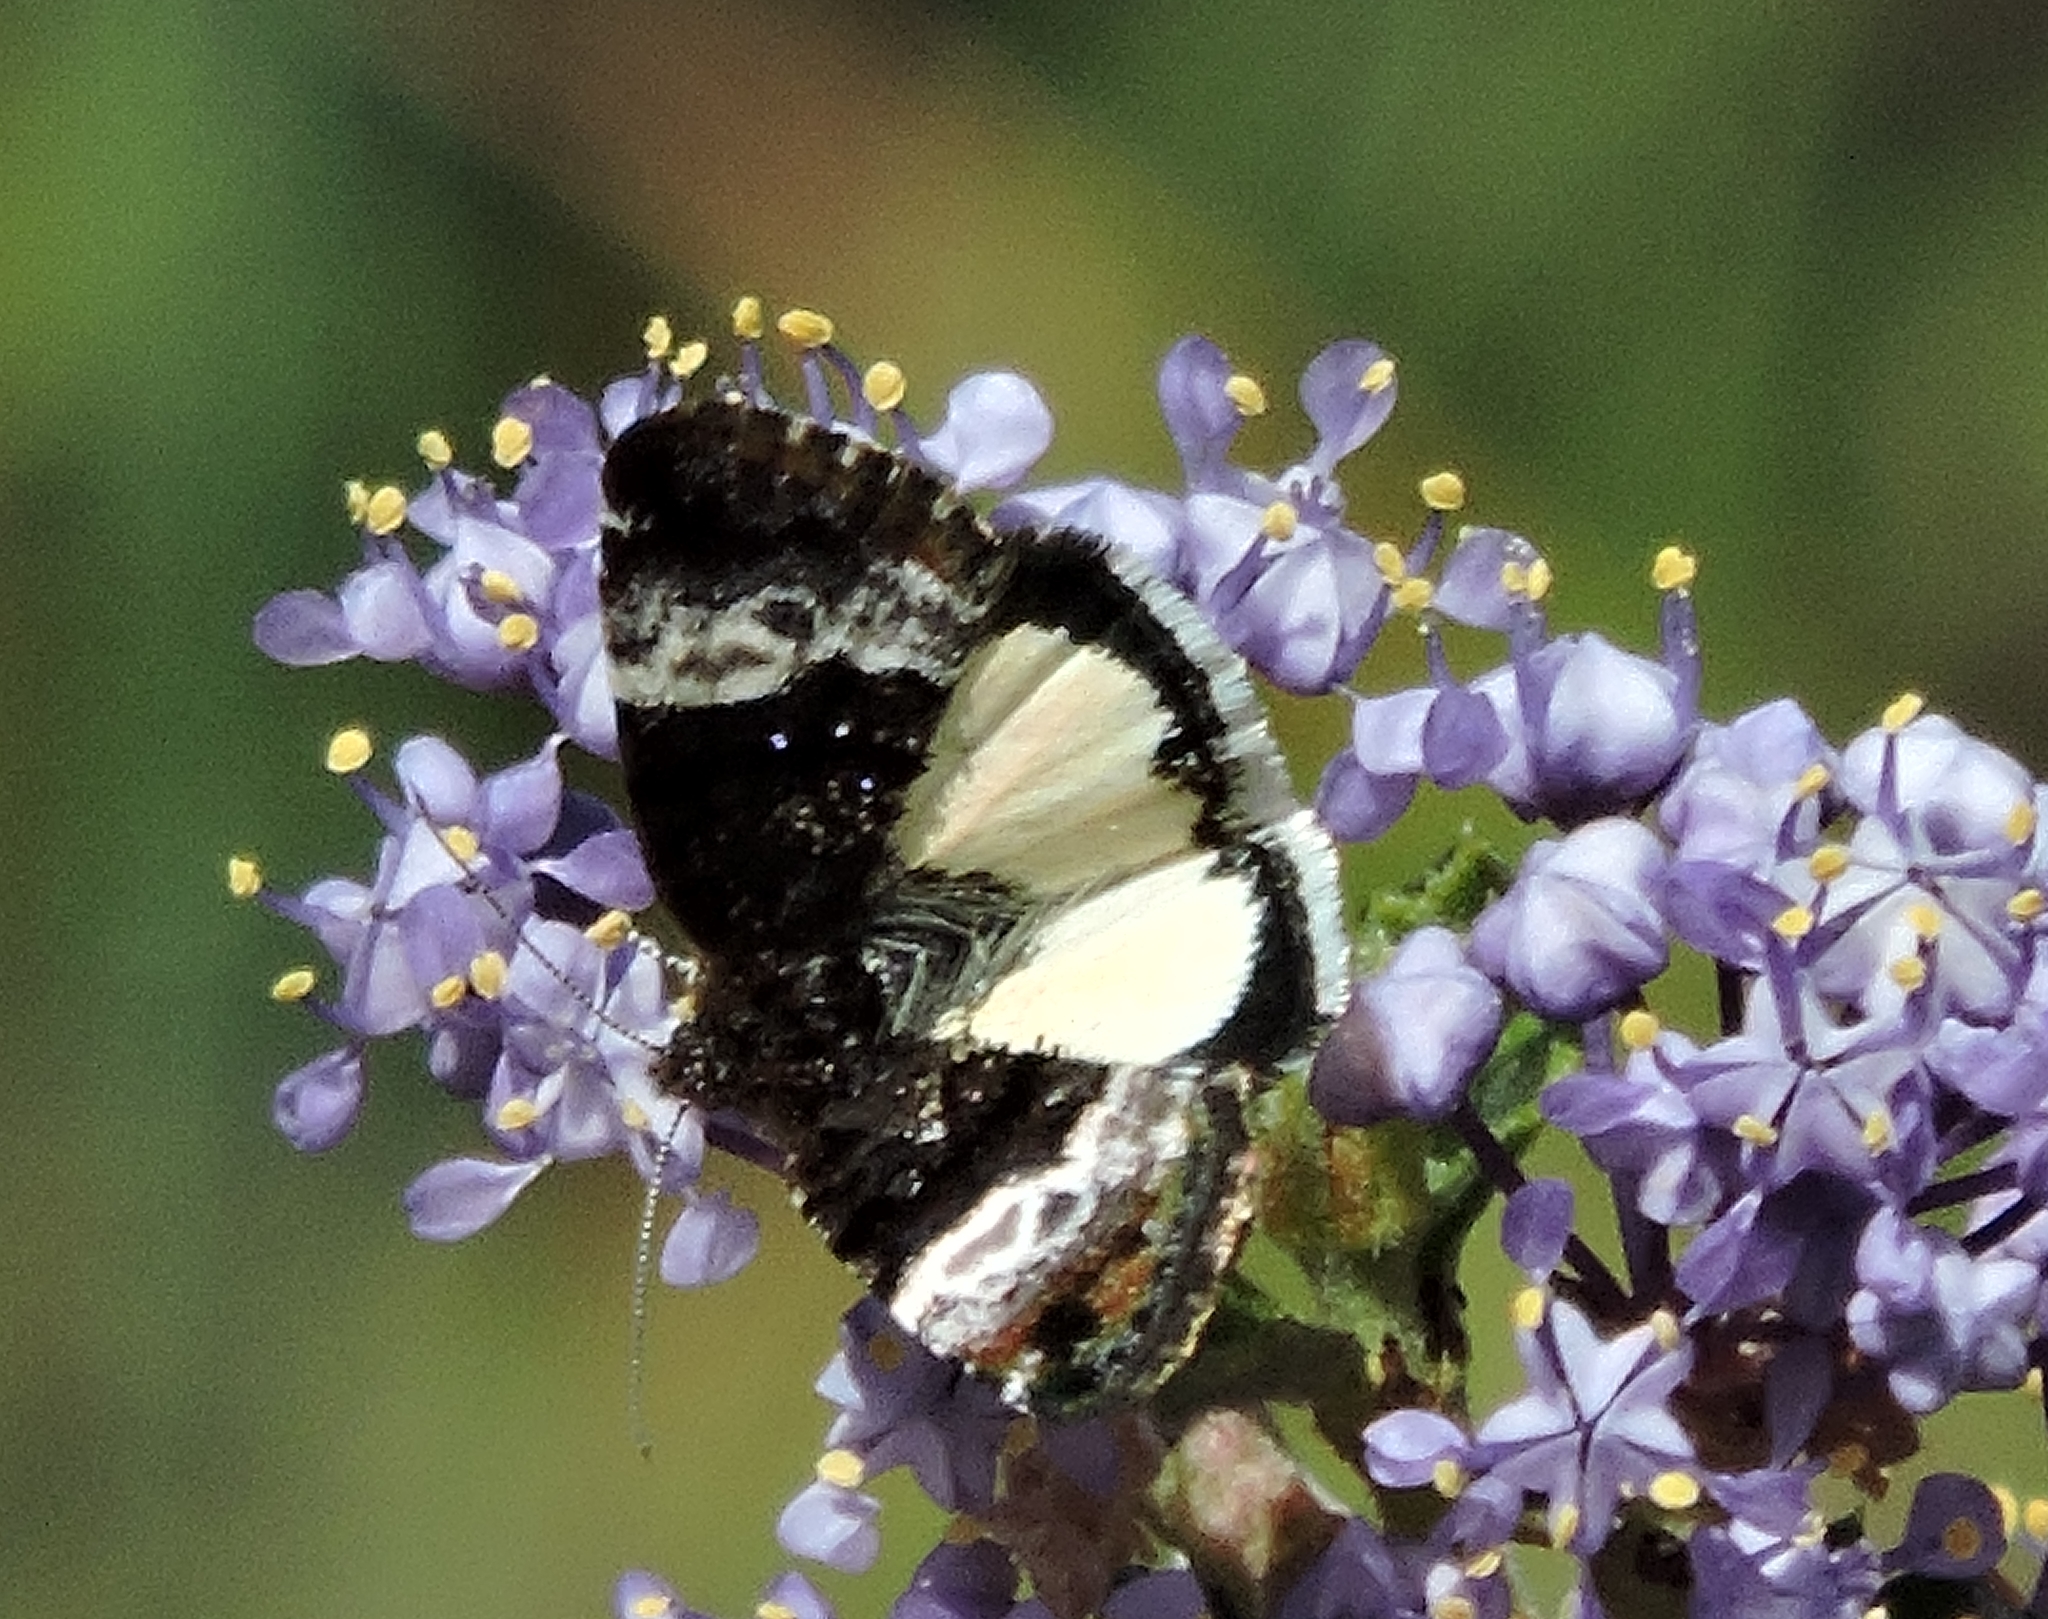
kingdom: Animalia
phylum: Arthropoda
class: Insecta
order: Lepidoptera
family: Noctuidae
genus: Annaphila
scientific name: Annaphila diva
